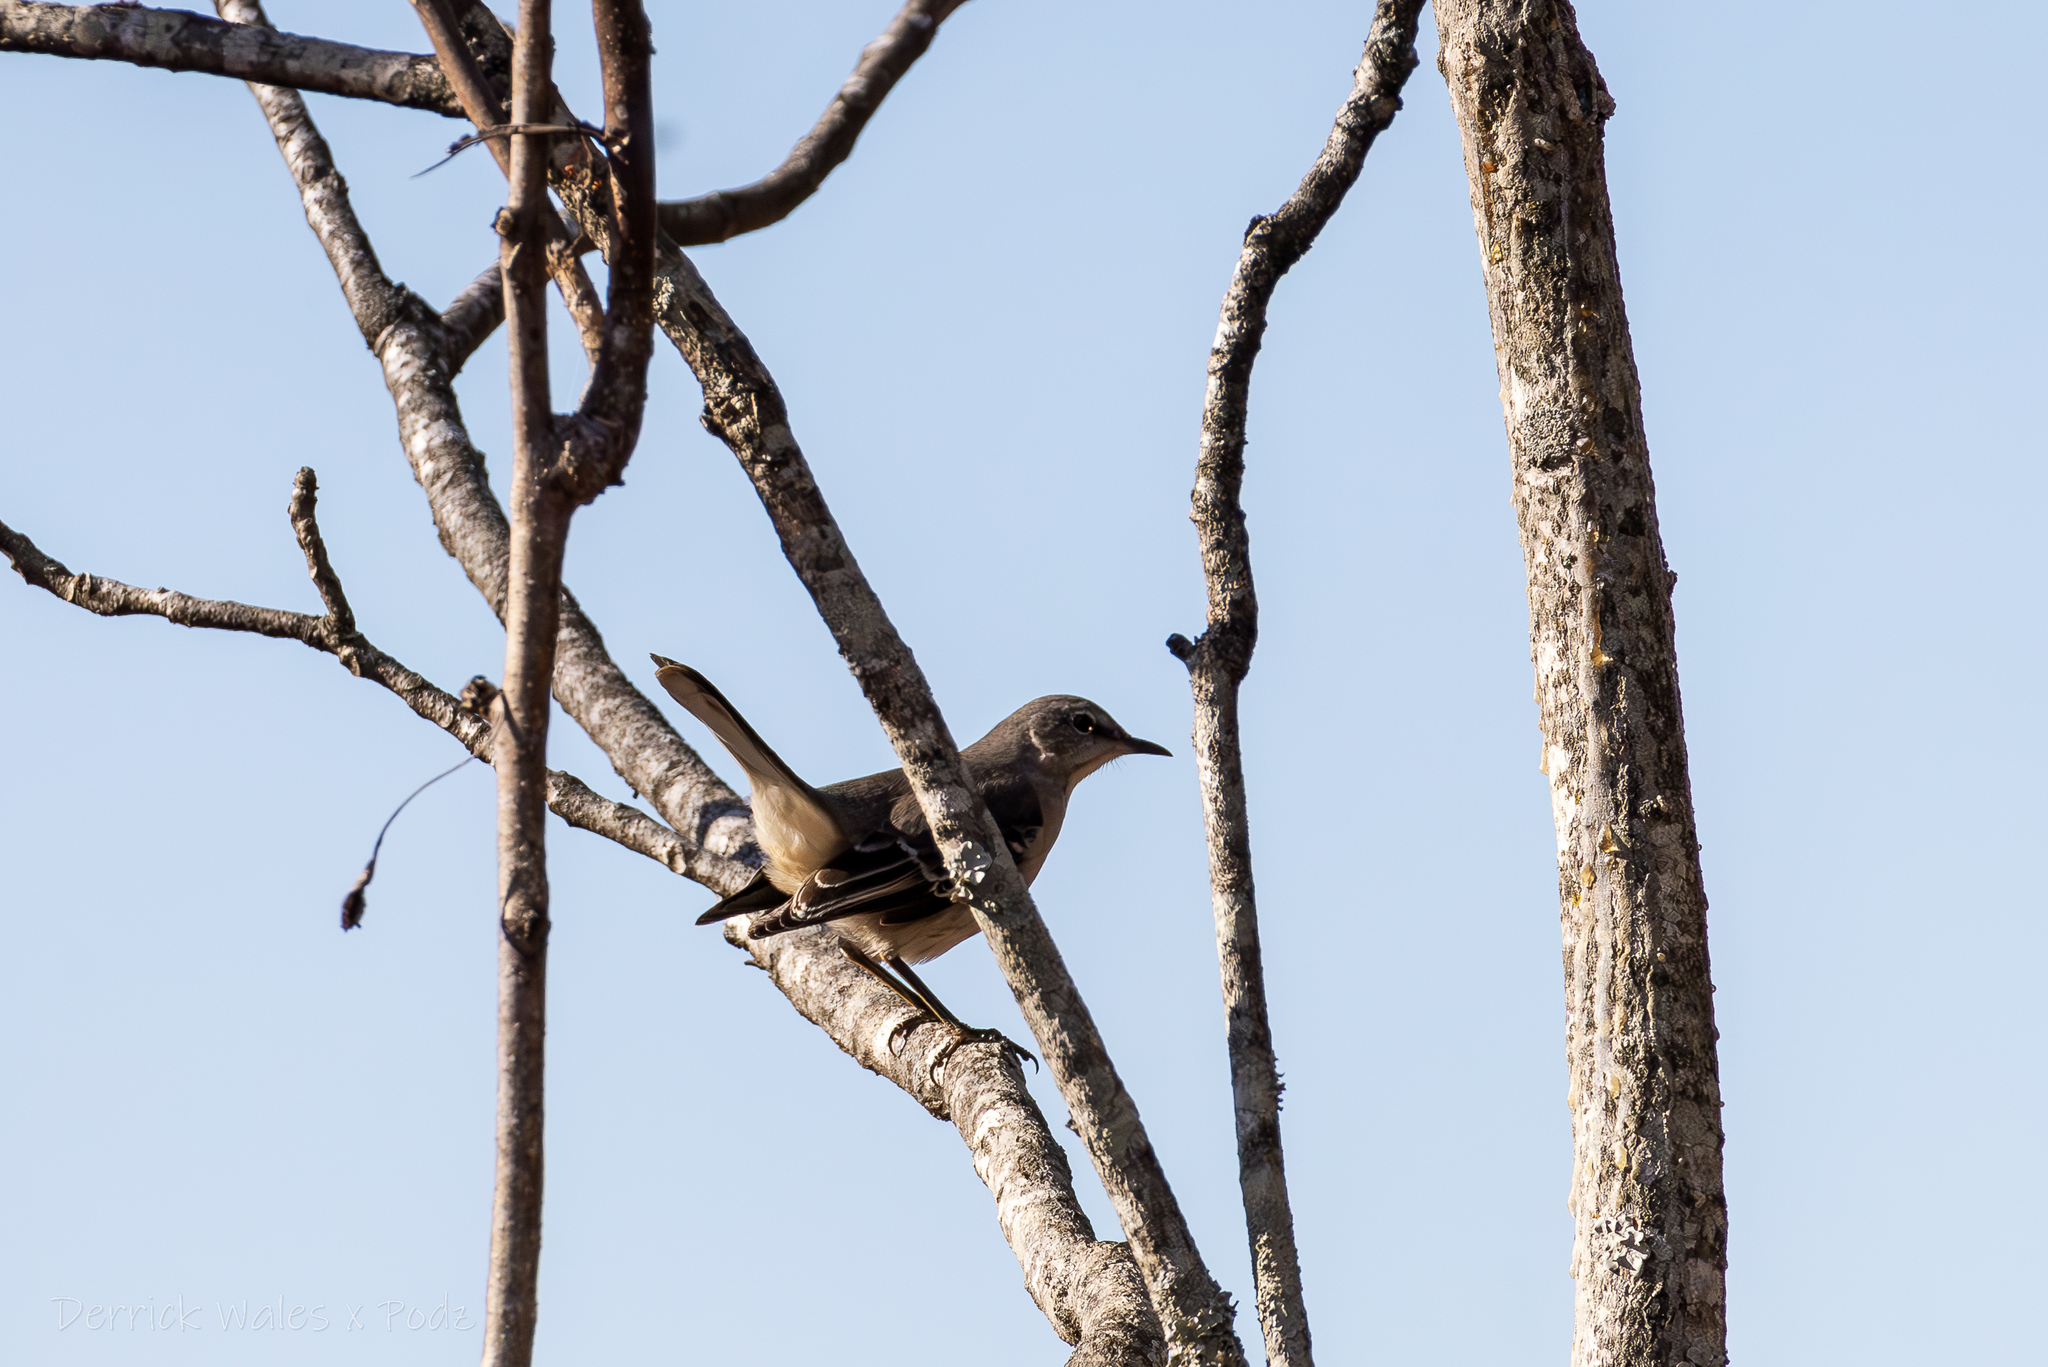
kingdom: Animalia
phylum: Chordata
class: Aves
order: Passeriformes
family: Mimidae
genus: Mimus
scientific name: Mimus polyglottos
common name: Northern mockingbird
